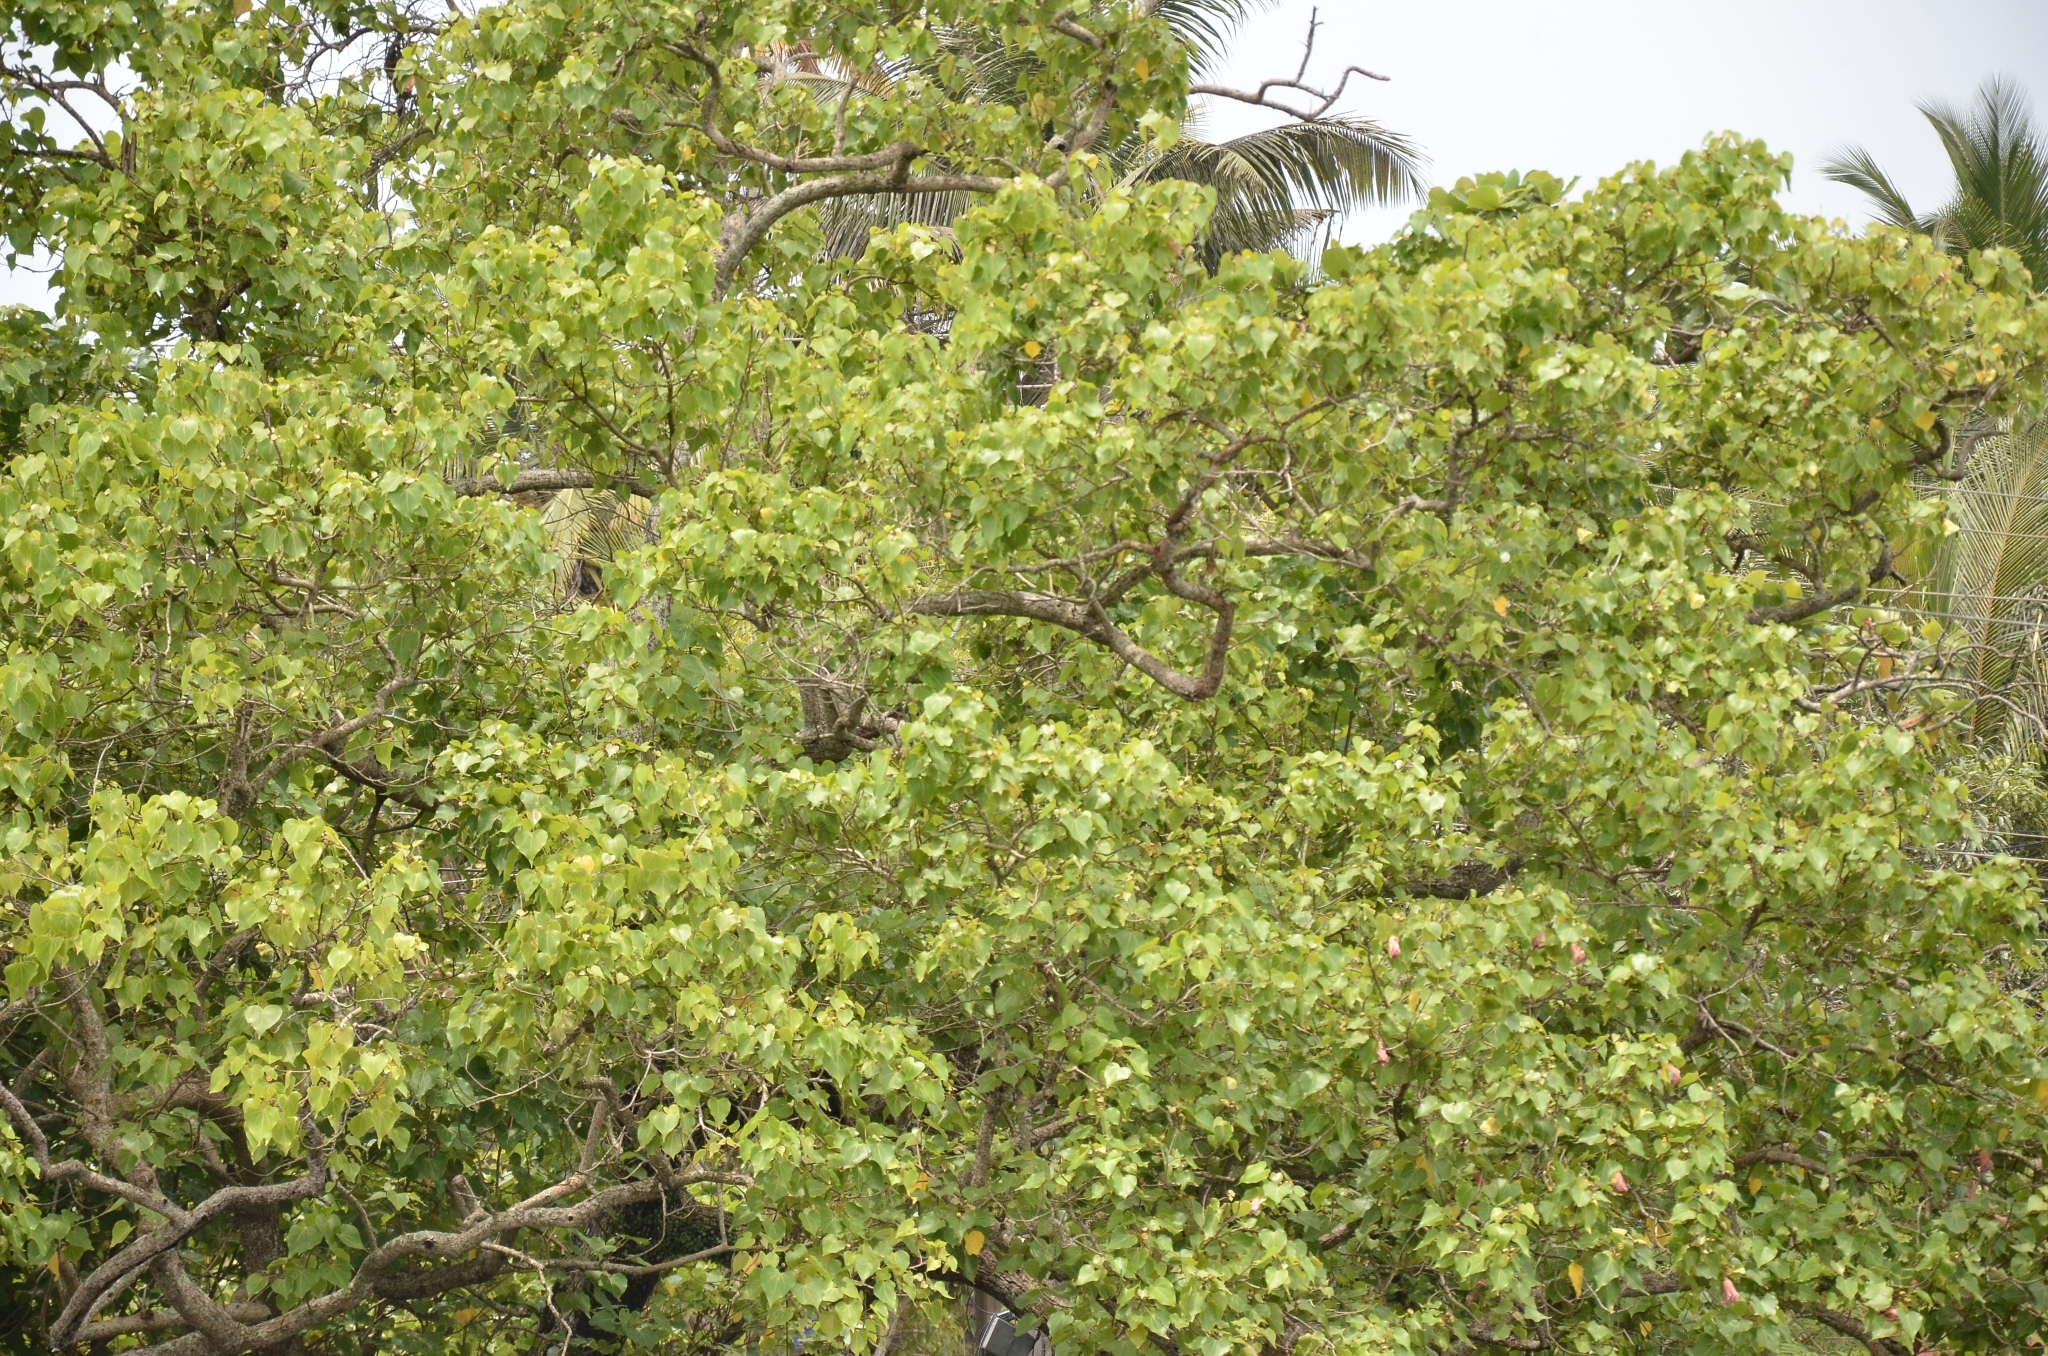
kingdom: Plantae
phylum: Tracheophyta
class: Magnoliopsida
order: Malvales
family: Malvaceae
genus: Thespesia
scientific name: Thespesia populnea
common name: Seaside mahoe
